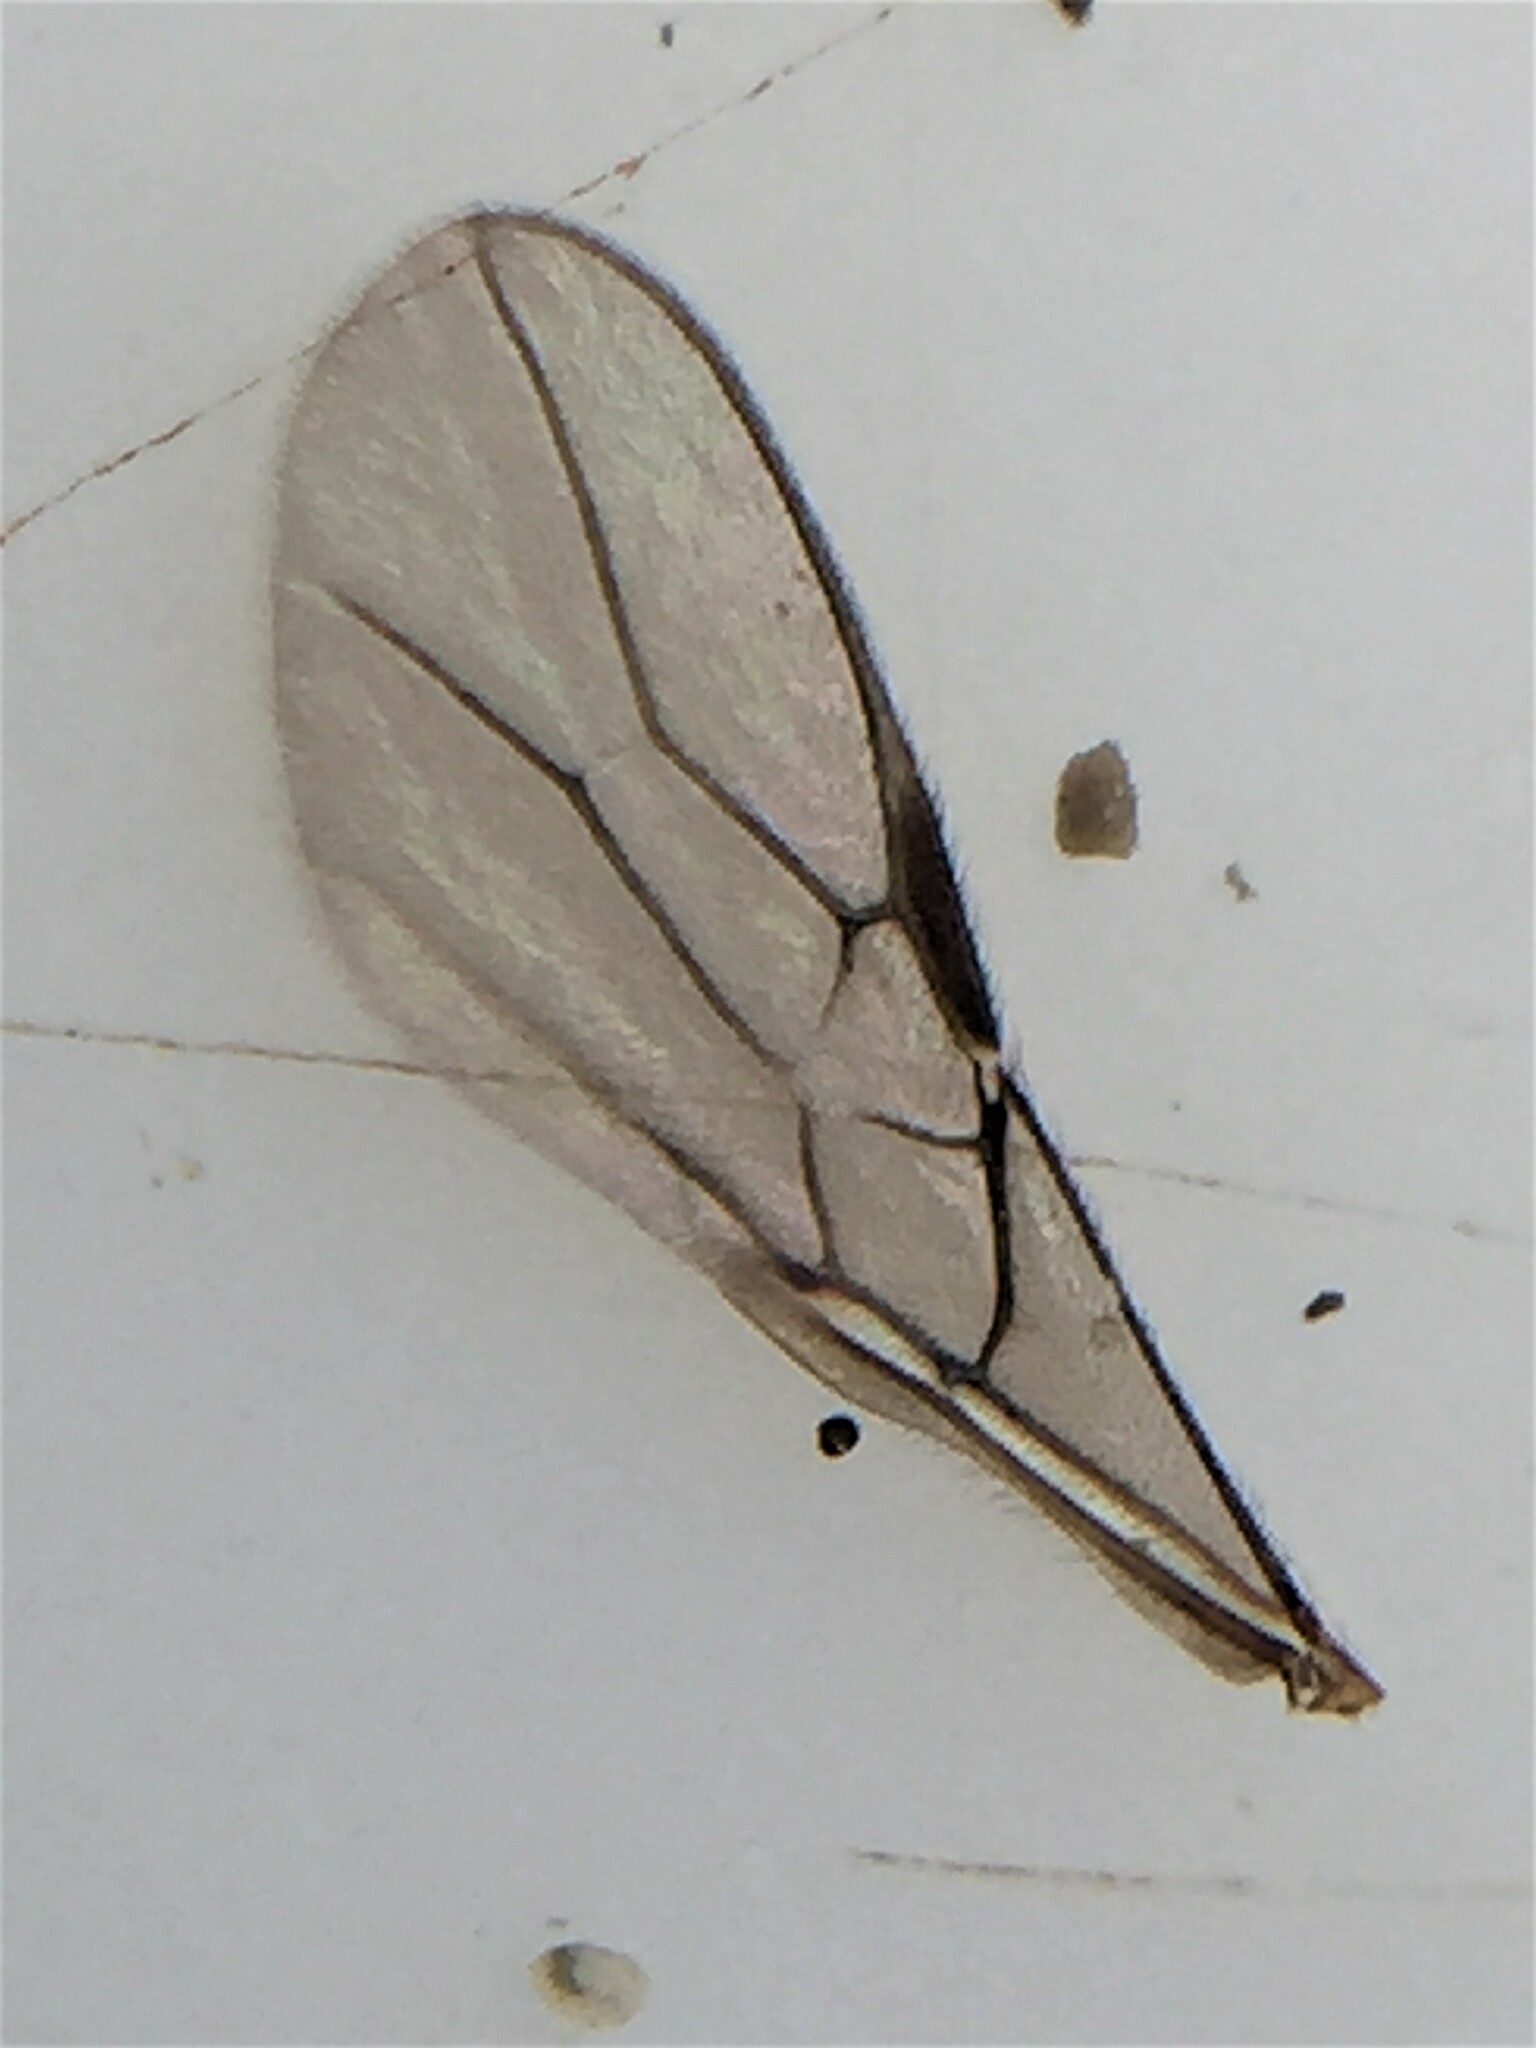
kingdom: Animalia
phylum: Arthropoda
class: Insecta
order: Hymenoptera
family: Braconidae
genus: Asobara
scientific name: Asobara antipoda
